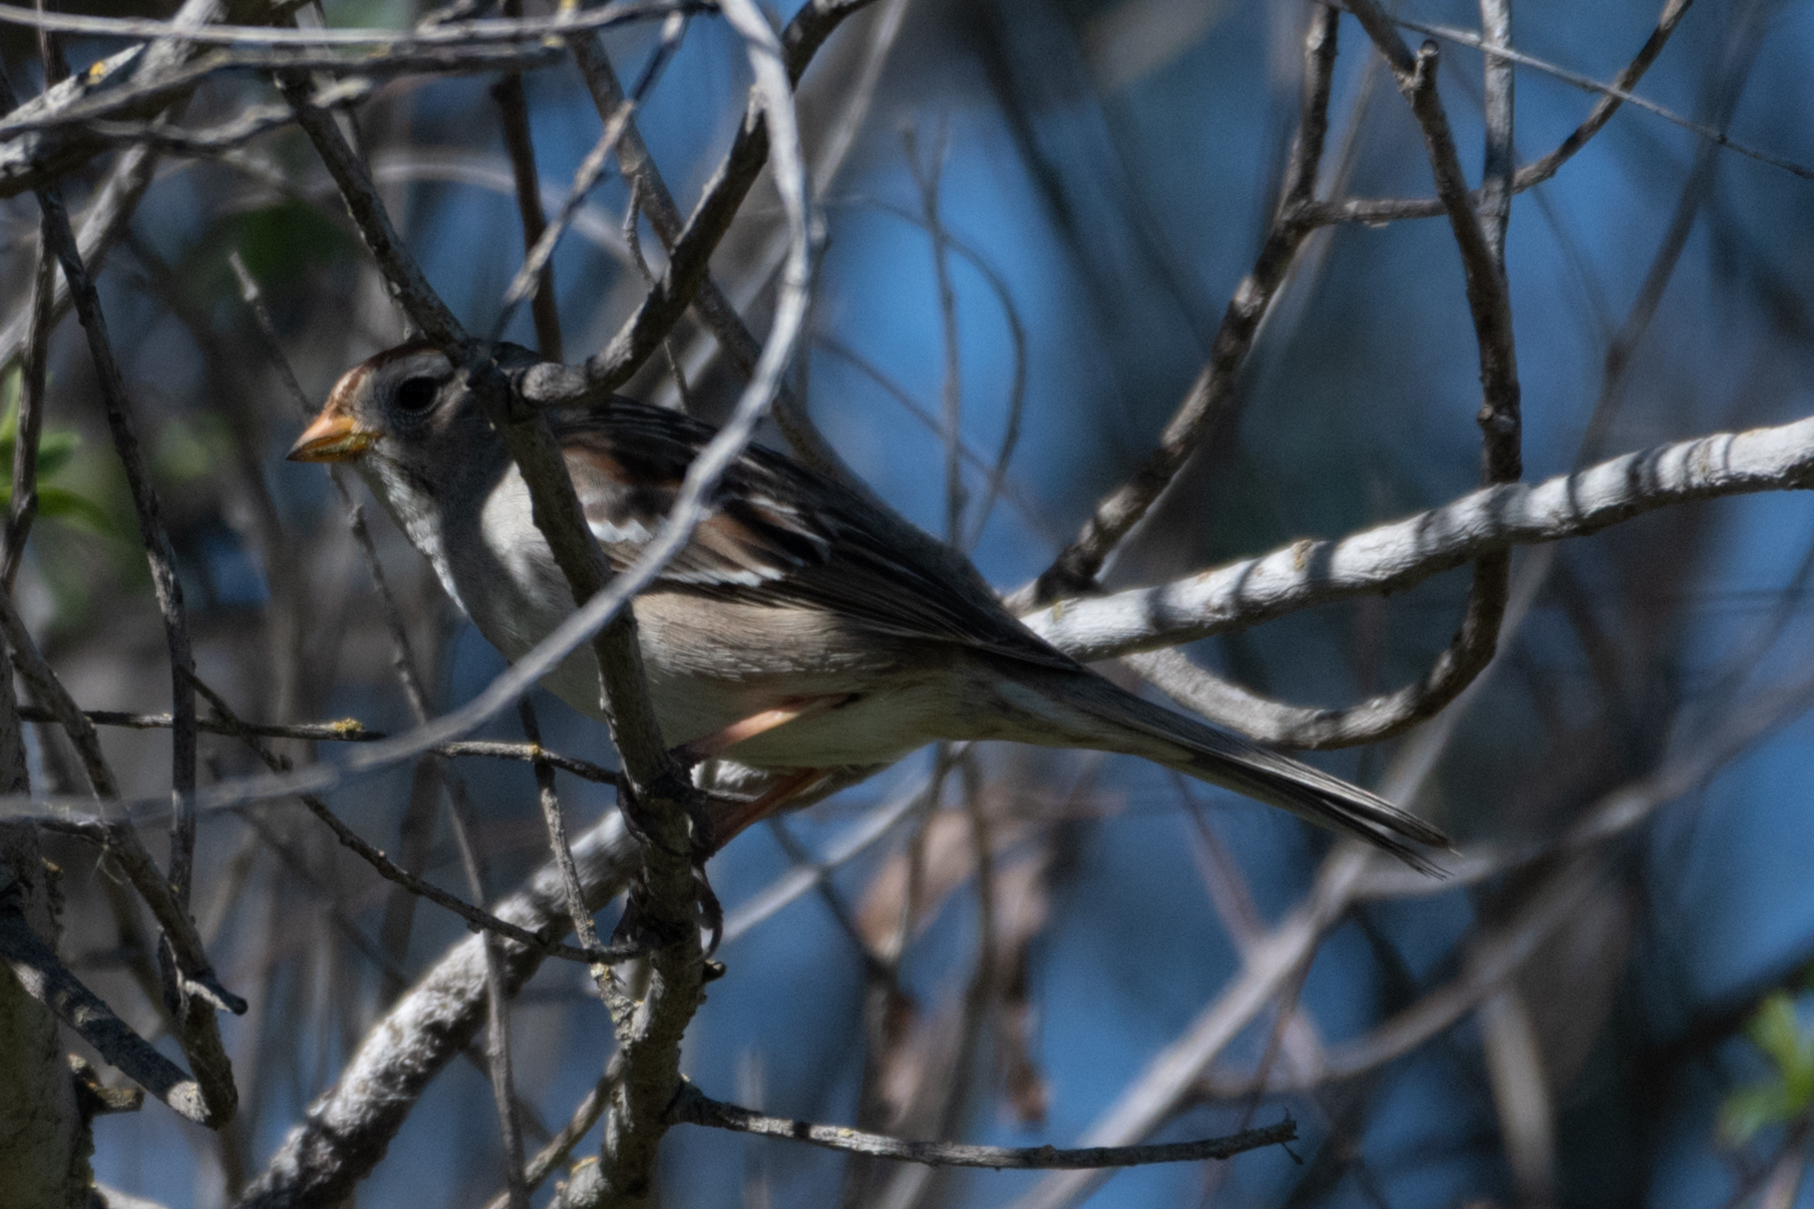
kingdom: Animalia
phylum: Chordata
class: Aves
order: Passeriformes
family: Passerellidae
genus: Zonotrichia
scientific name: Zonotrichia leucophrys
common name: White-crowned sparrow
